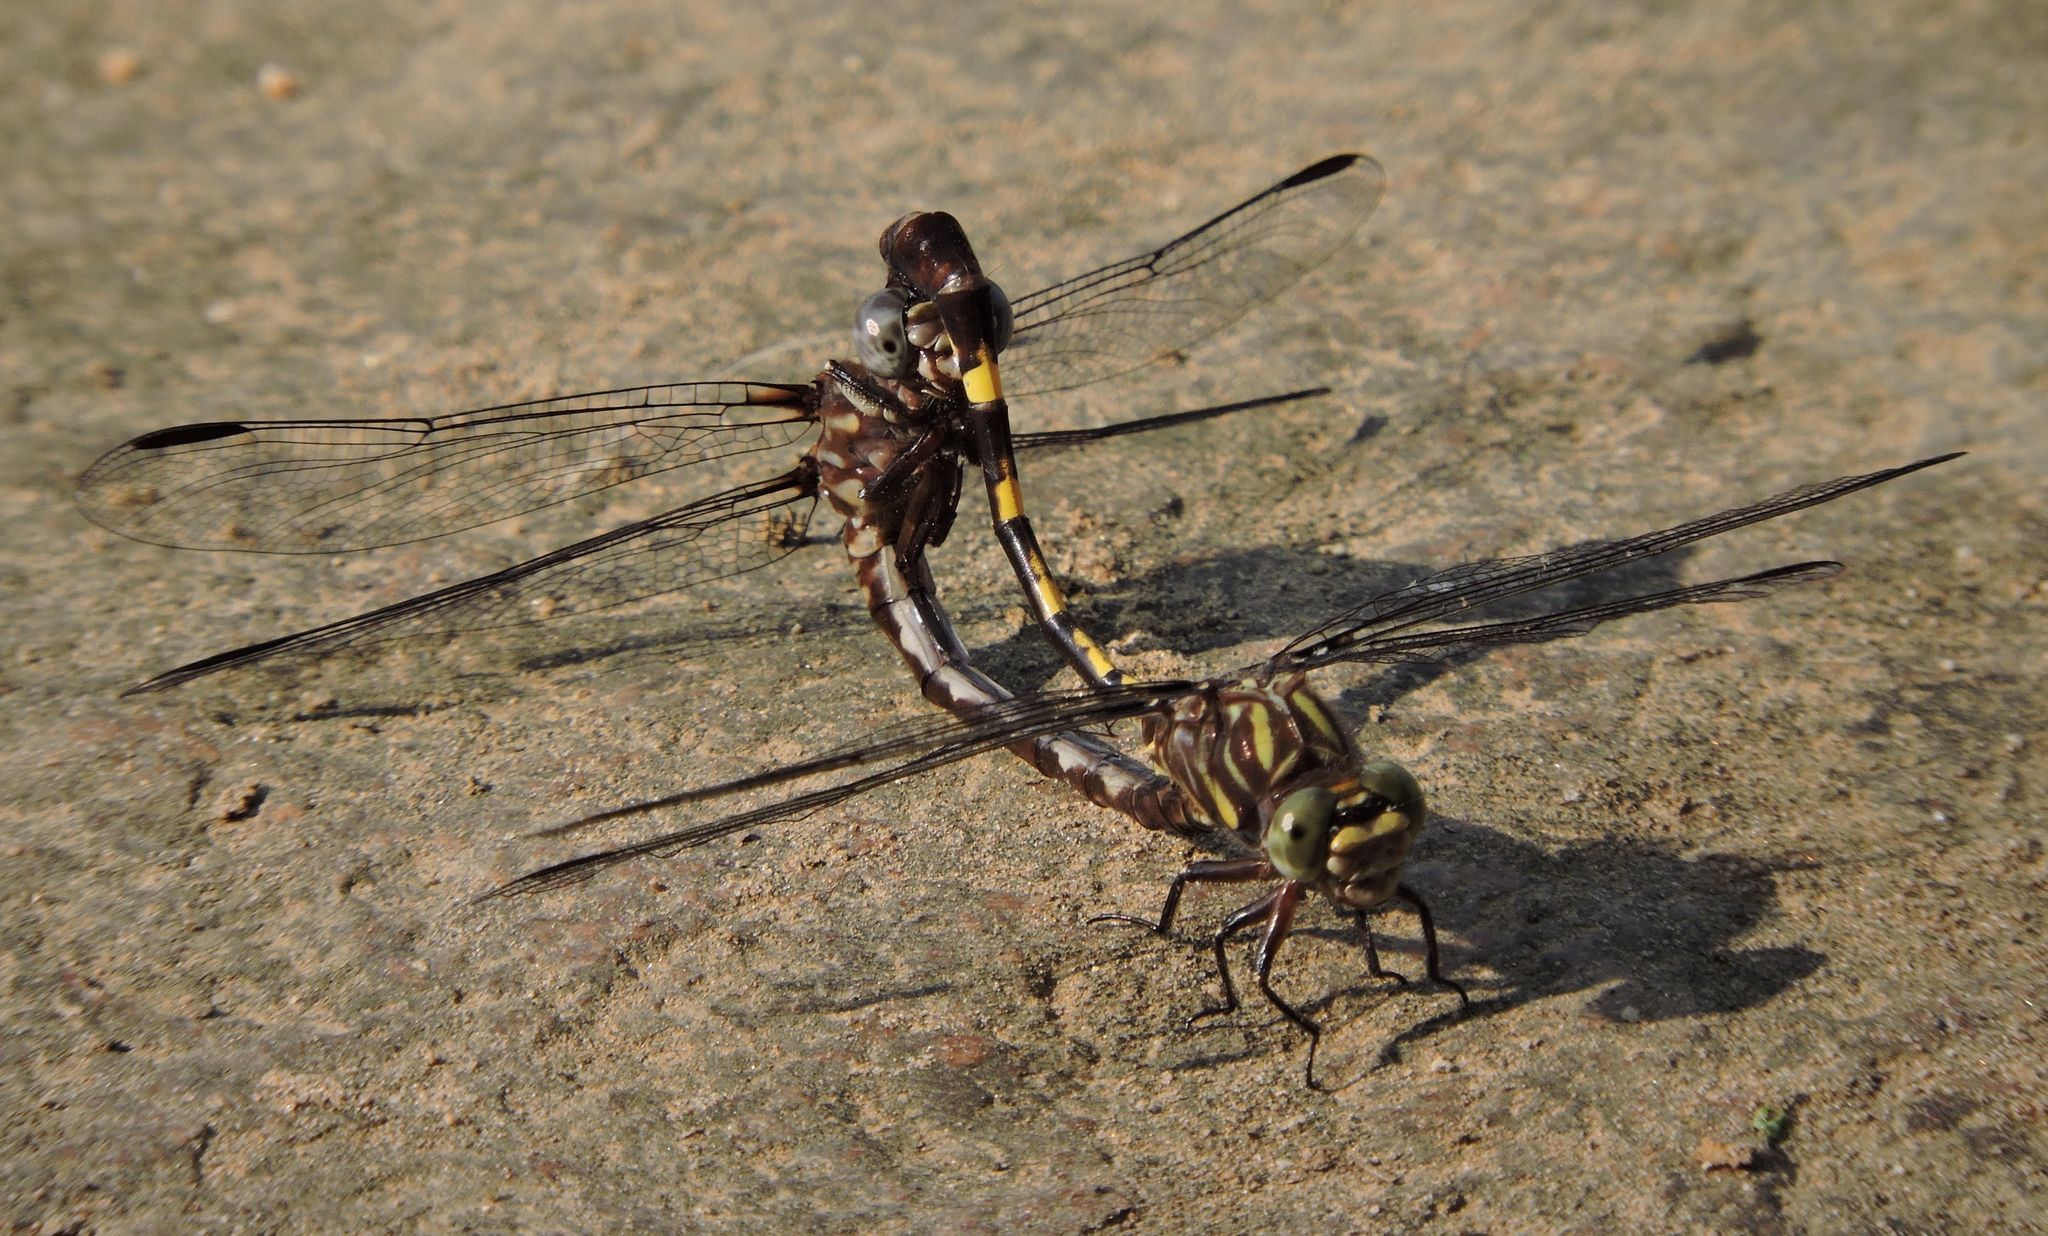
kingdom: Animalia
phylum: Arthropoda
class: Insecta
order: Odonata
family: Gomphidae
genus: Progomphus
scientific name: Progomphus obscurus
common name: Common sanddragon
